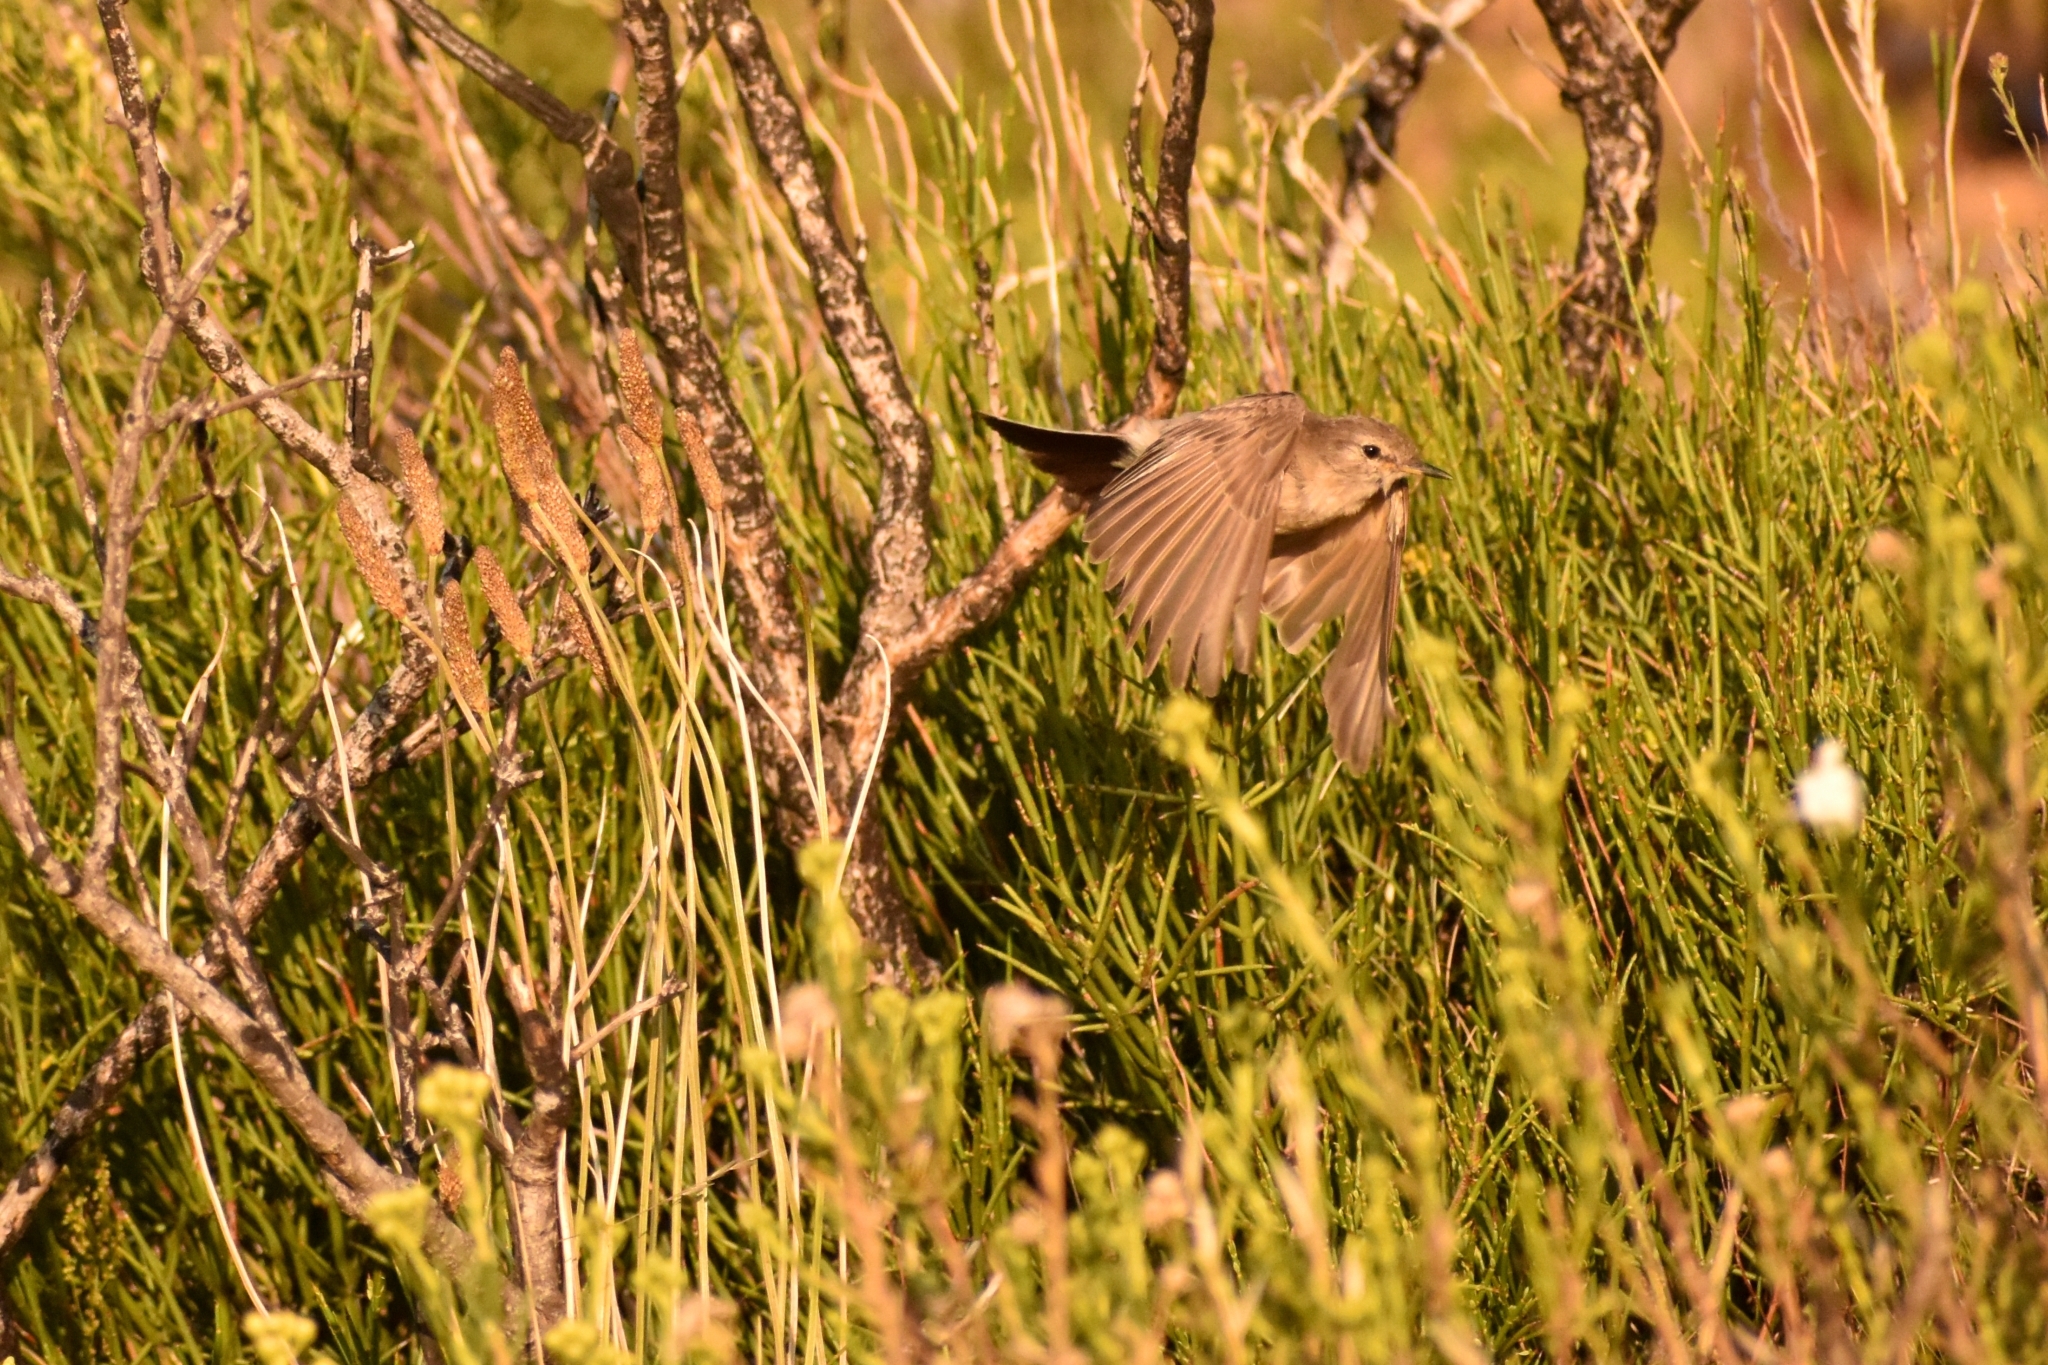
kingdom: Animalia
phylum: Chordata
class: Aves
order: Passeriformes
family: Tyrannidae
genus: Muscisaxicola
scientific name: Muscisaxicola maculirostris
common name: Spot-billed ground tyrant
